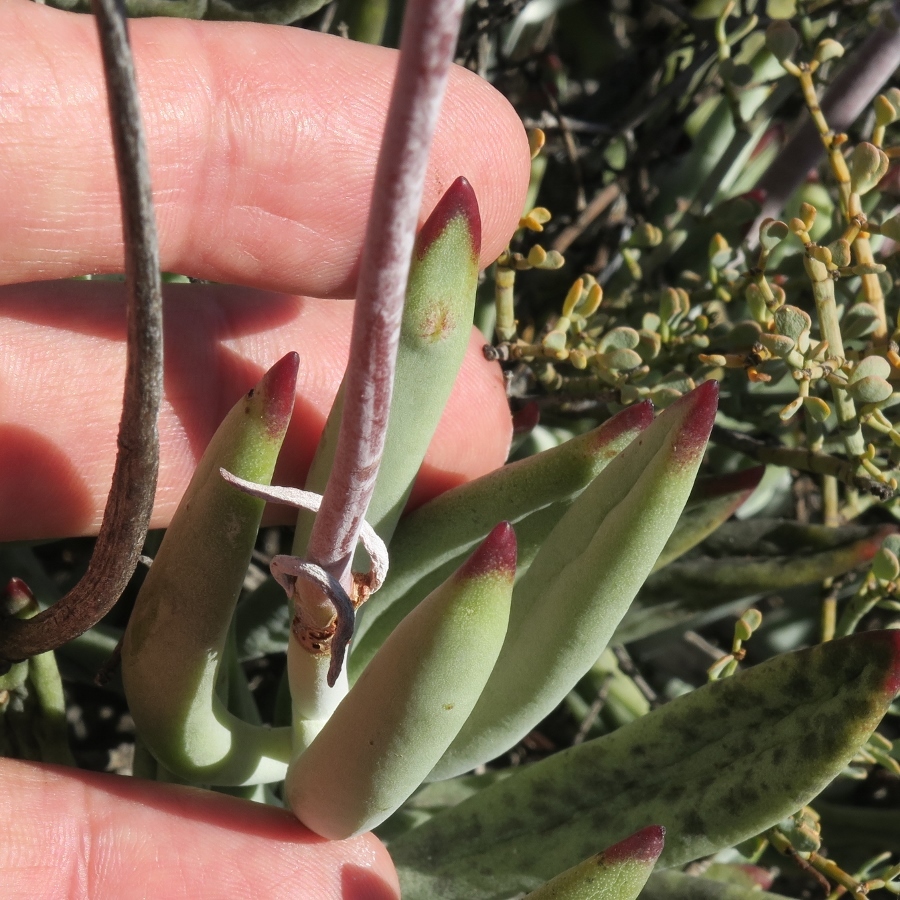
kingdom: Plantae
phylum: Tracheophyta
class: Magnoliopsida
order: Saxifragales
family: Crassulaceae
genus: Cotyledon
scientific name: Cotyledon orbiculata
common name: Pig's ear
